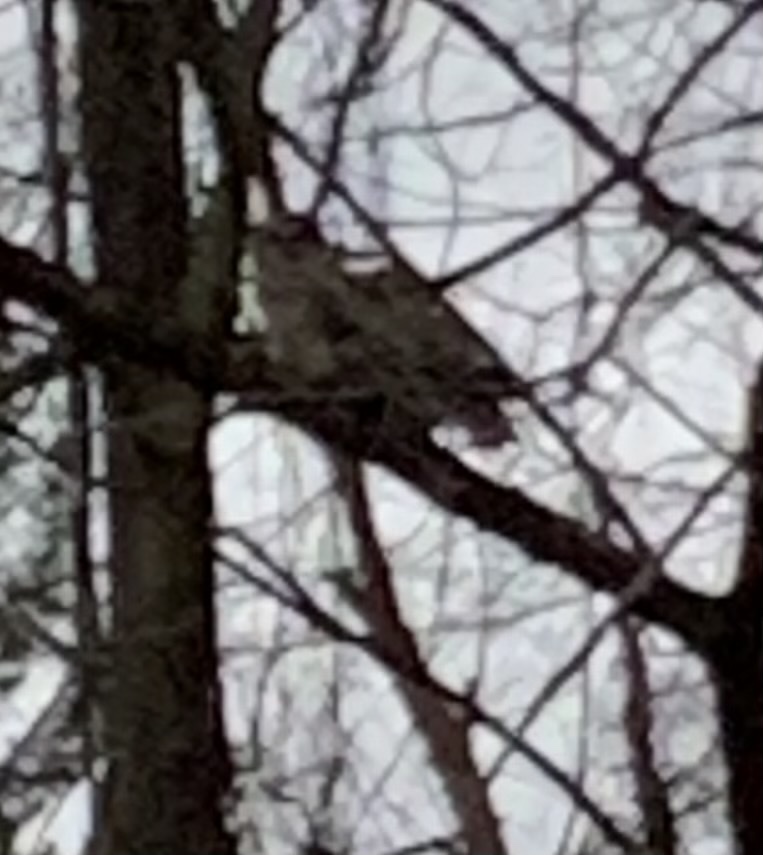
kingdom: Animalia
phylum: Chordata
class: Aves
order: Strigiformes
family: Strigidae
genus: Strix
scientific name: Strix varia
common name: Barred owl
